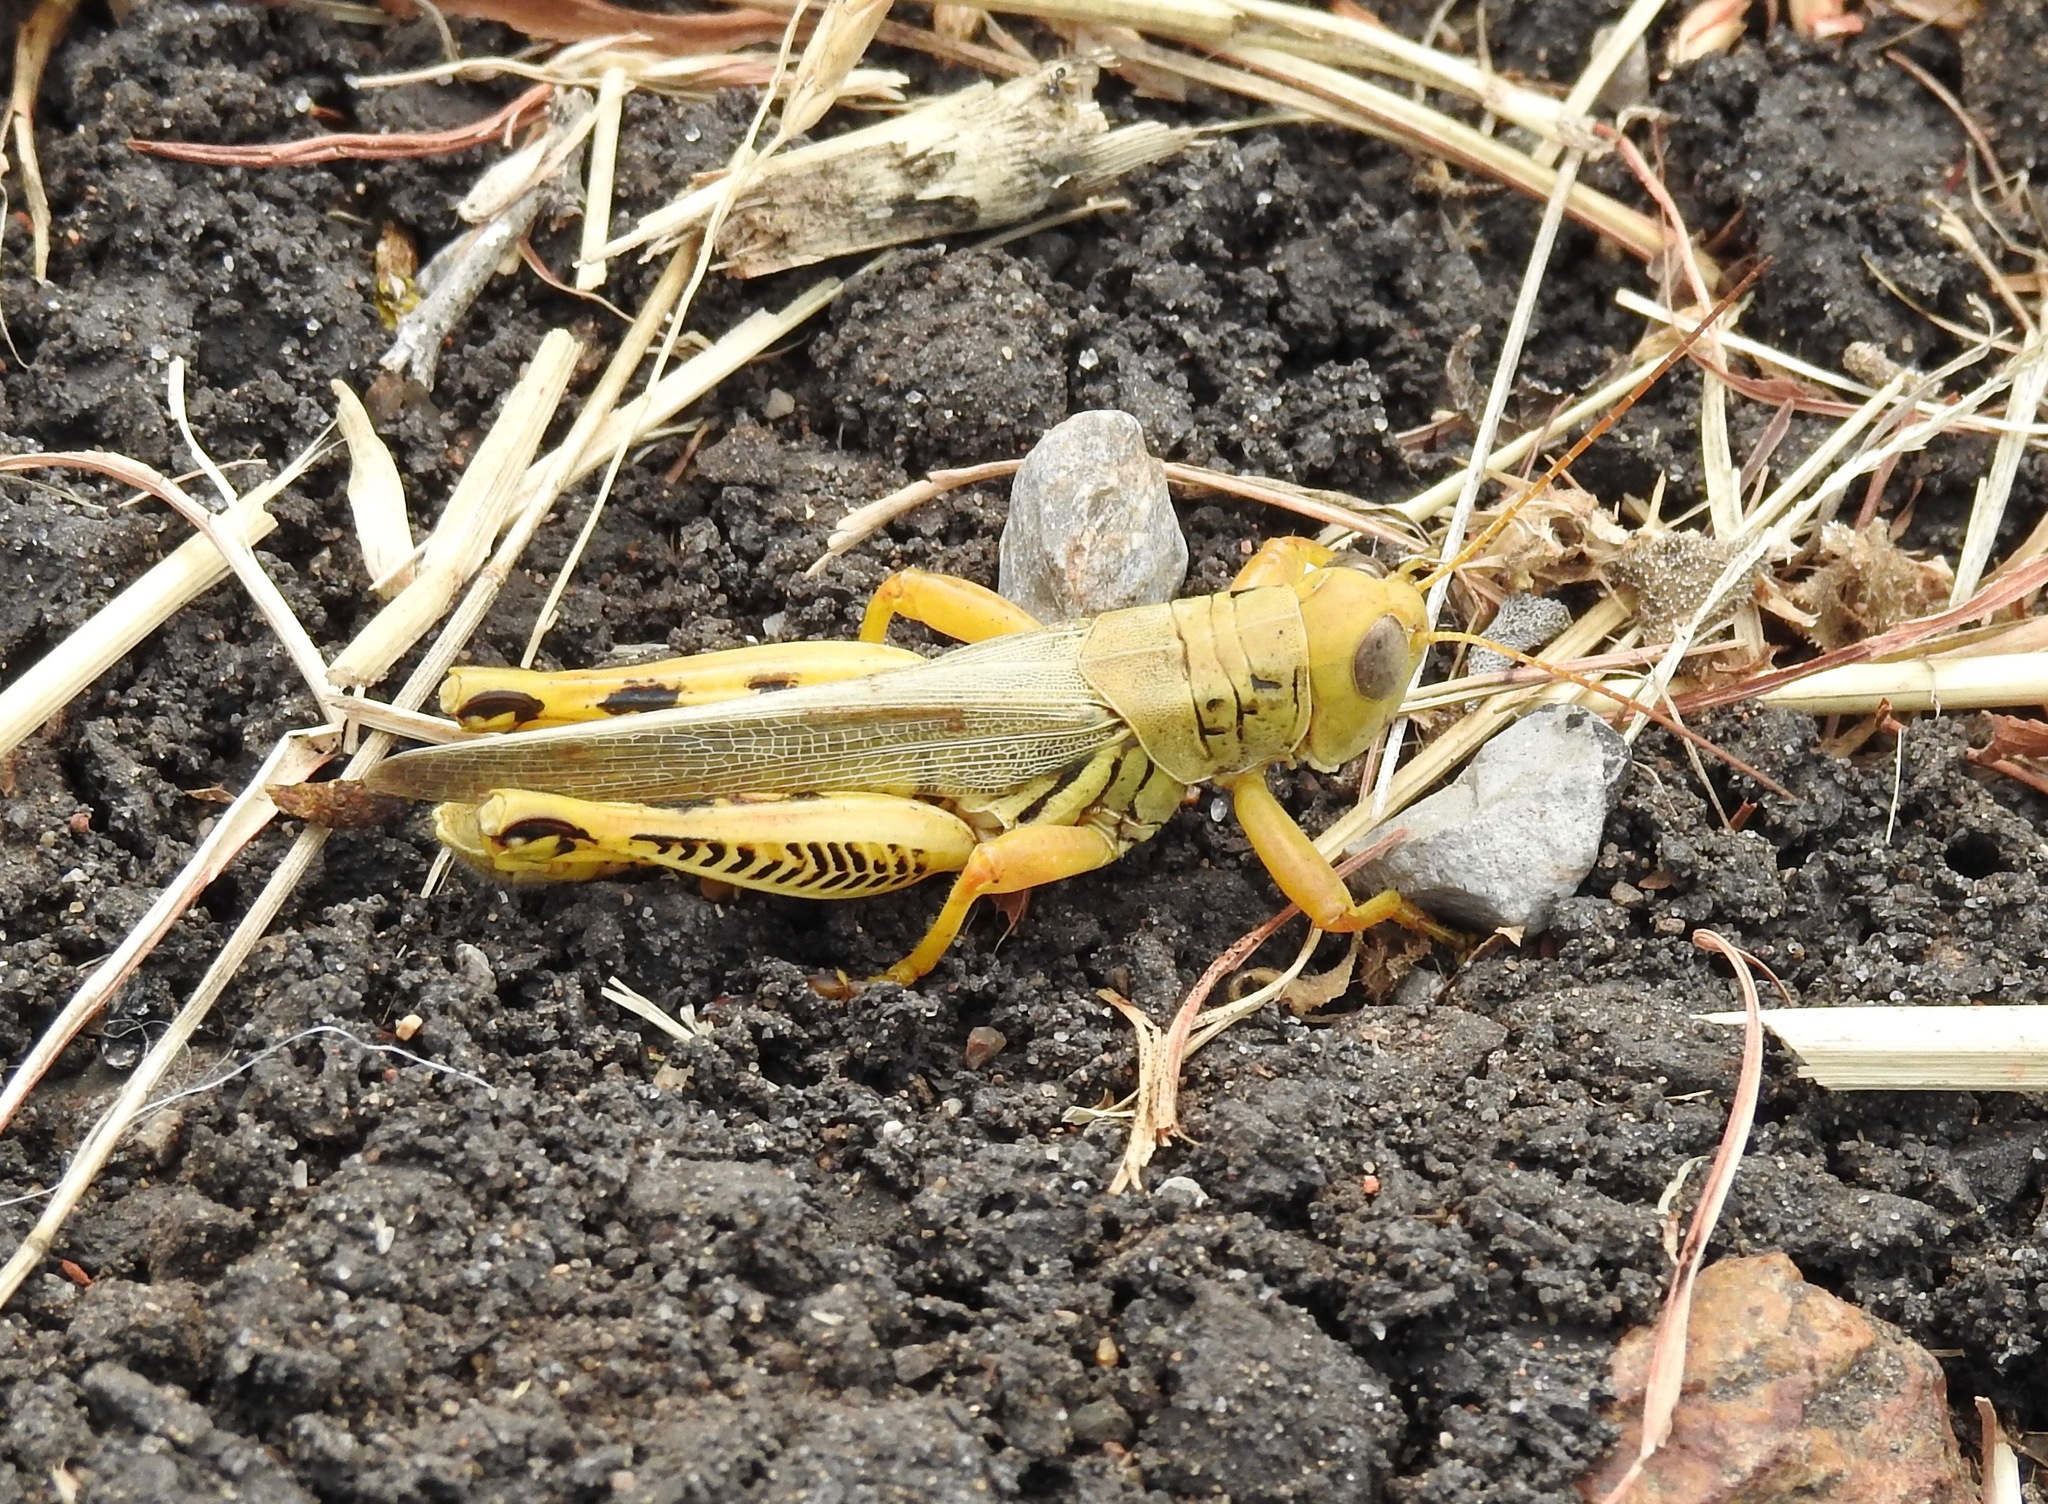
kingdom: Animalia
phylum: Arthropoda
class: Insecta
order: Orthoptera
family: Acrididae
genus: Melanoplus
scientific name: Melanoplus differentialis
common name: Differential grasshopper
